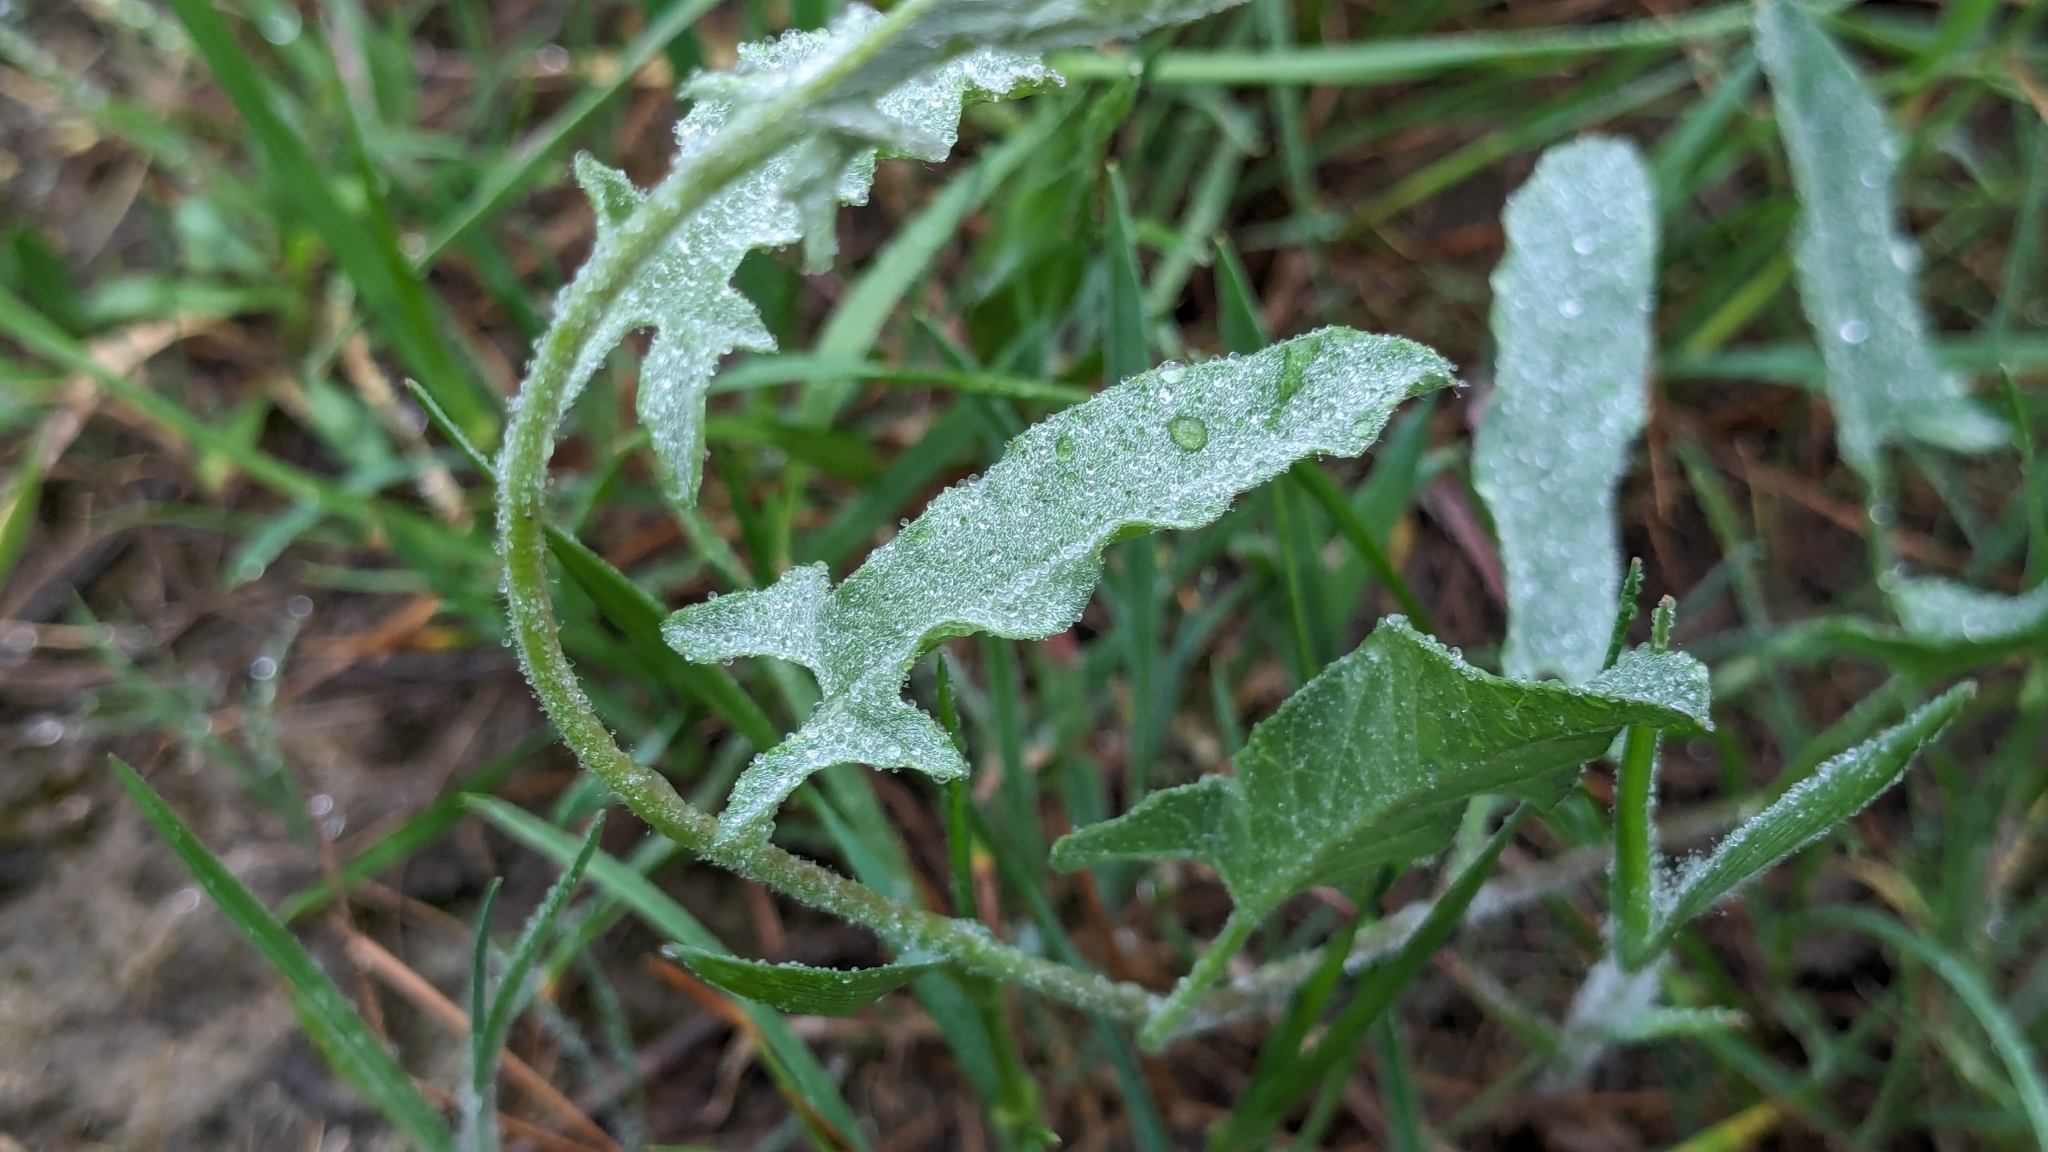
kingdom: Plantae
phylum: Tracheophyta
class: Magnoliopsida
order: Solanales
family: Convolvulaceae
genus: Convolvulus
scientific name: Convolvulus equitans
